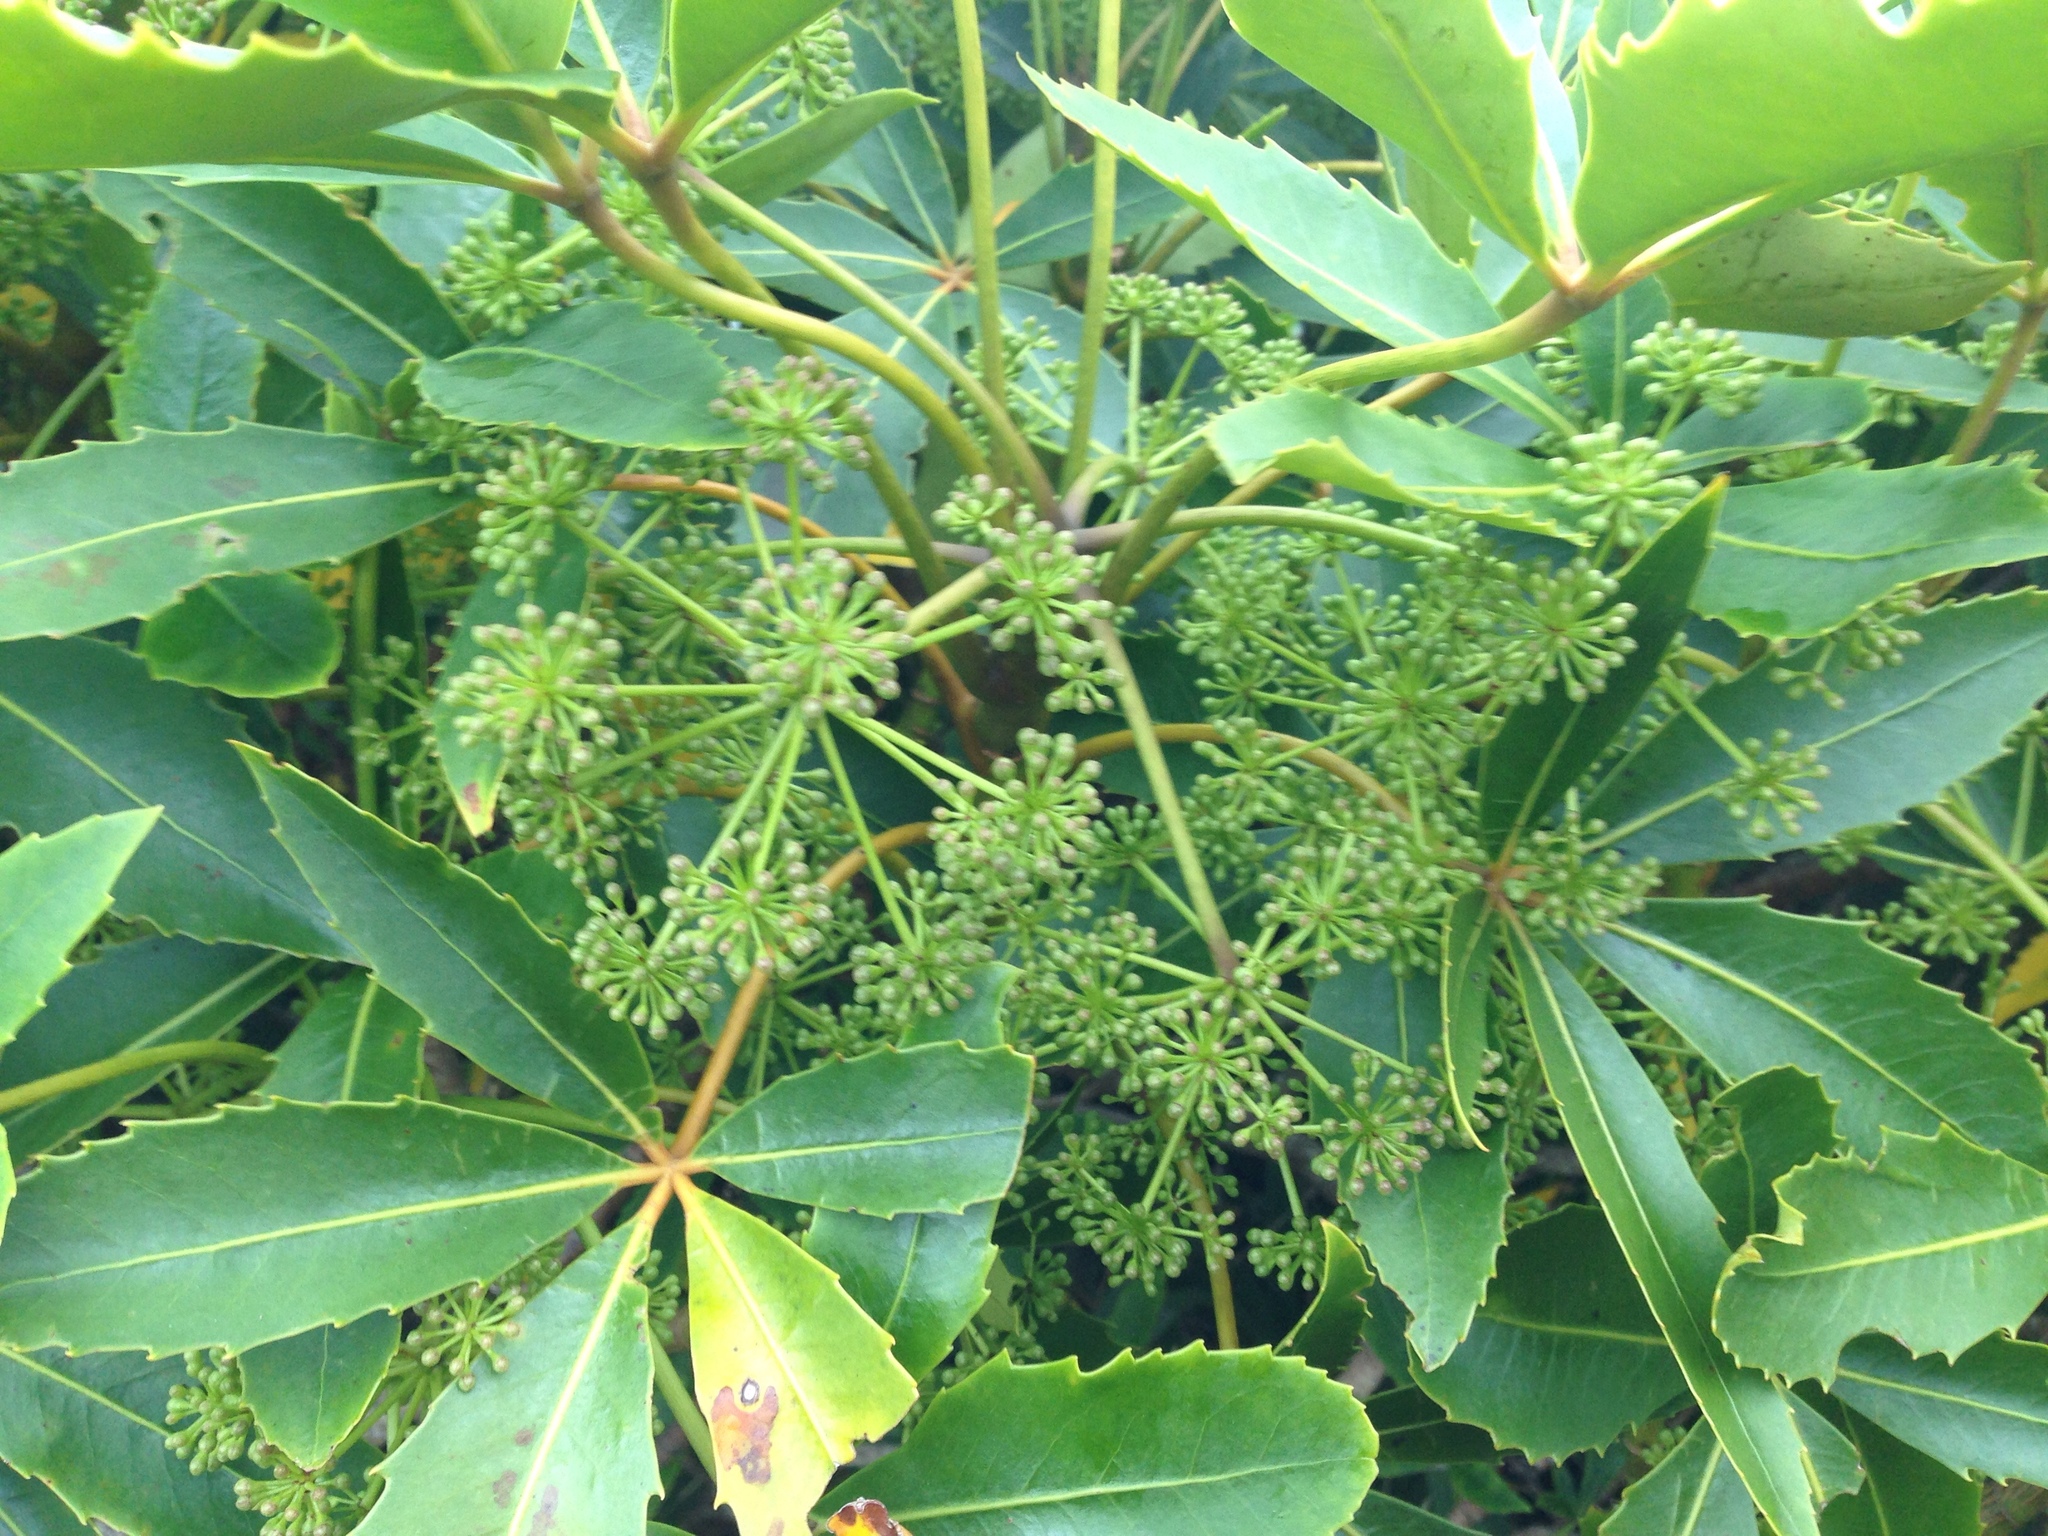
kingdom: Plantae
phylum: Tracheophyta
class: Magnoliopsida
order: Apiales
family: Araliaceae
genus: Neopanax
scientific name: Neopanax colensoi
